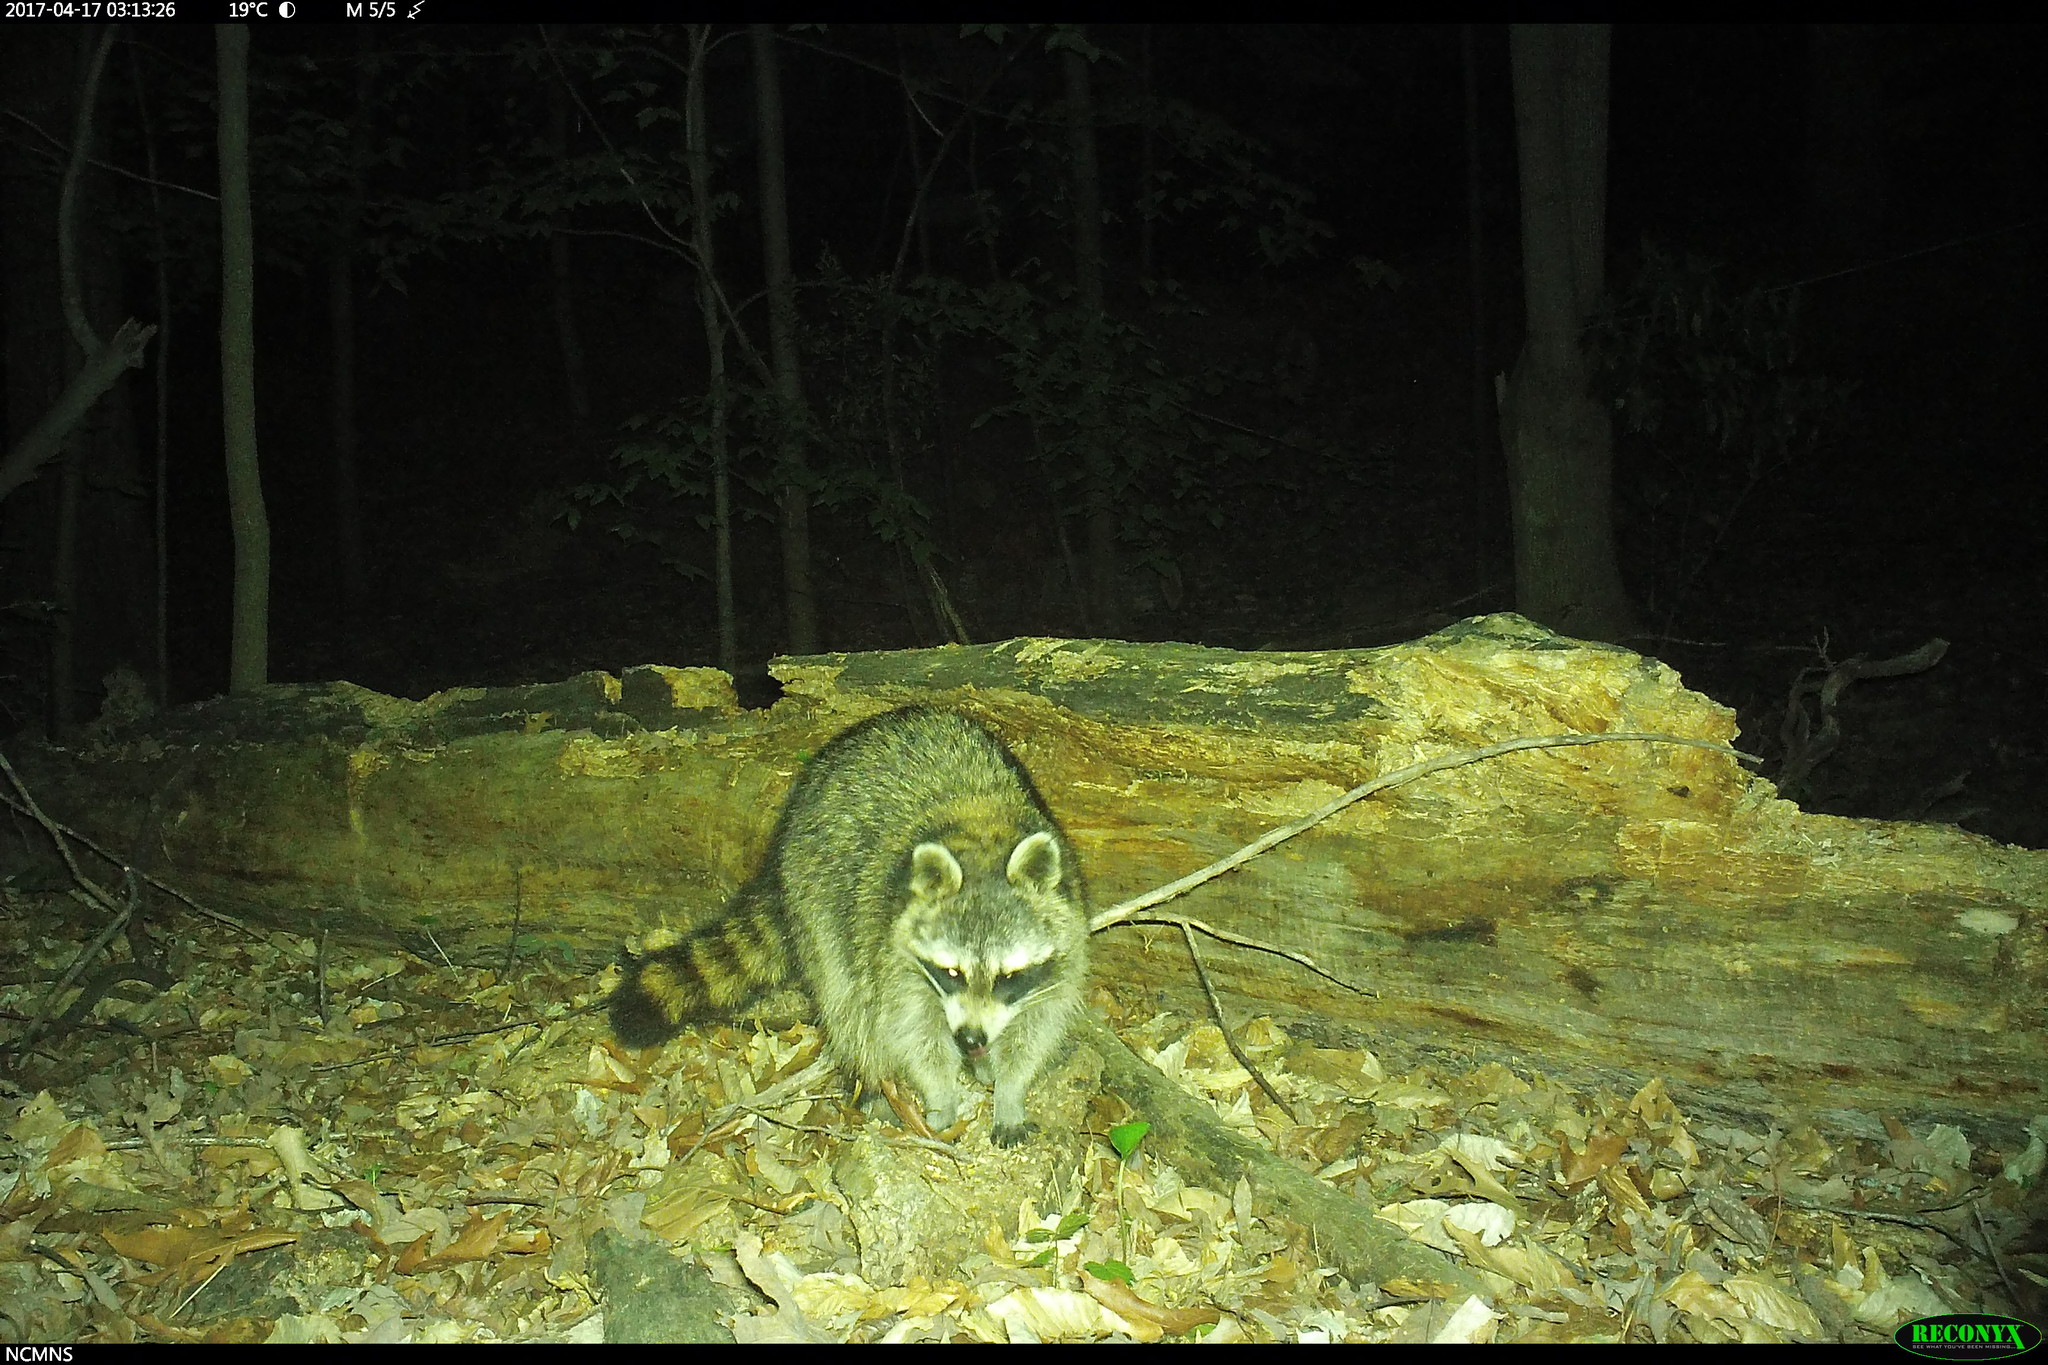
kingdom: Animalia
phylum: Chordata
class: Mammalia
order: Carnivora
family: Procyonidae
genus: Procyon
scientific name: Procyon lotor
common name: Raccoon
